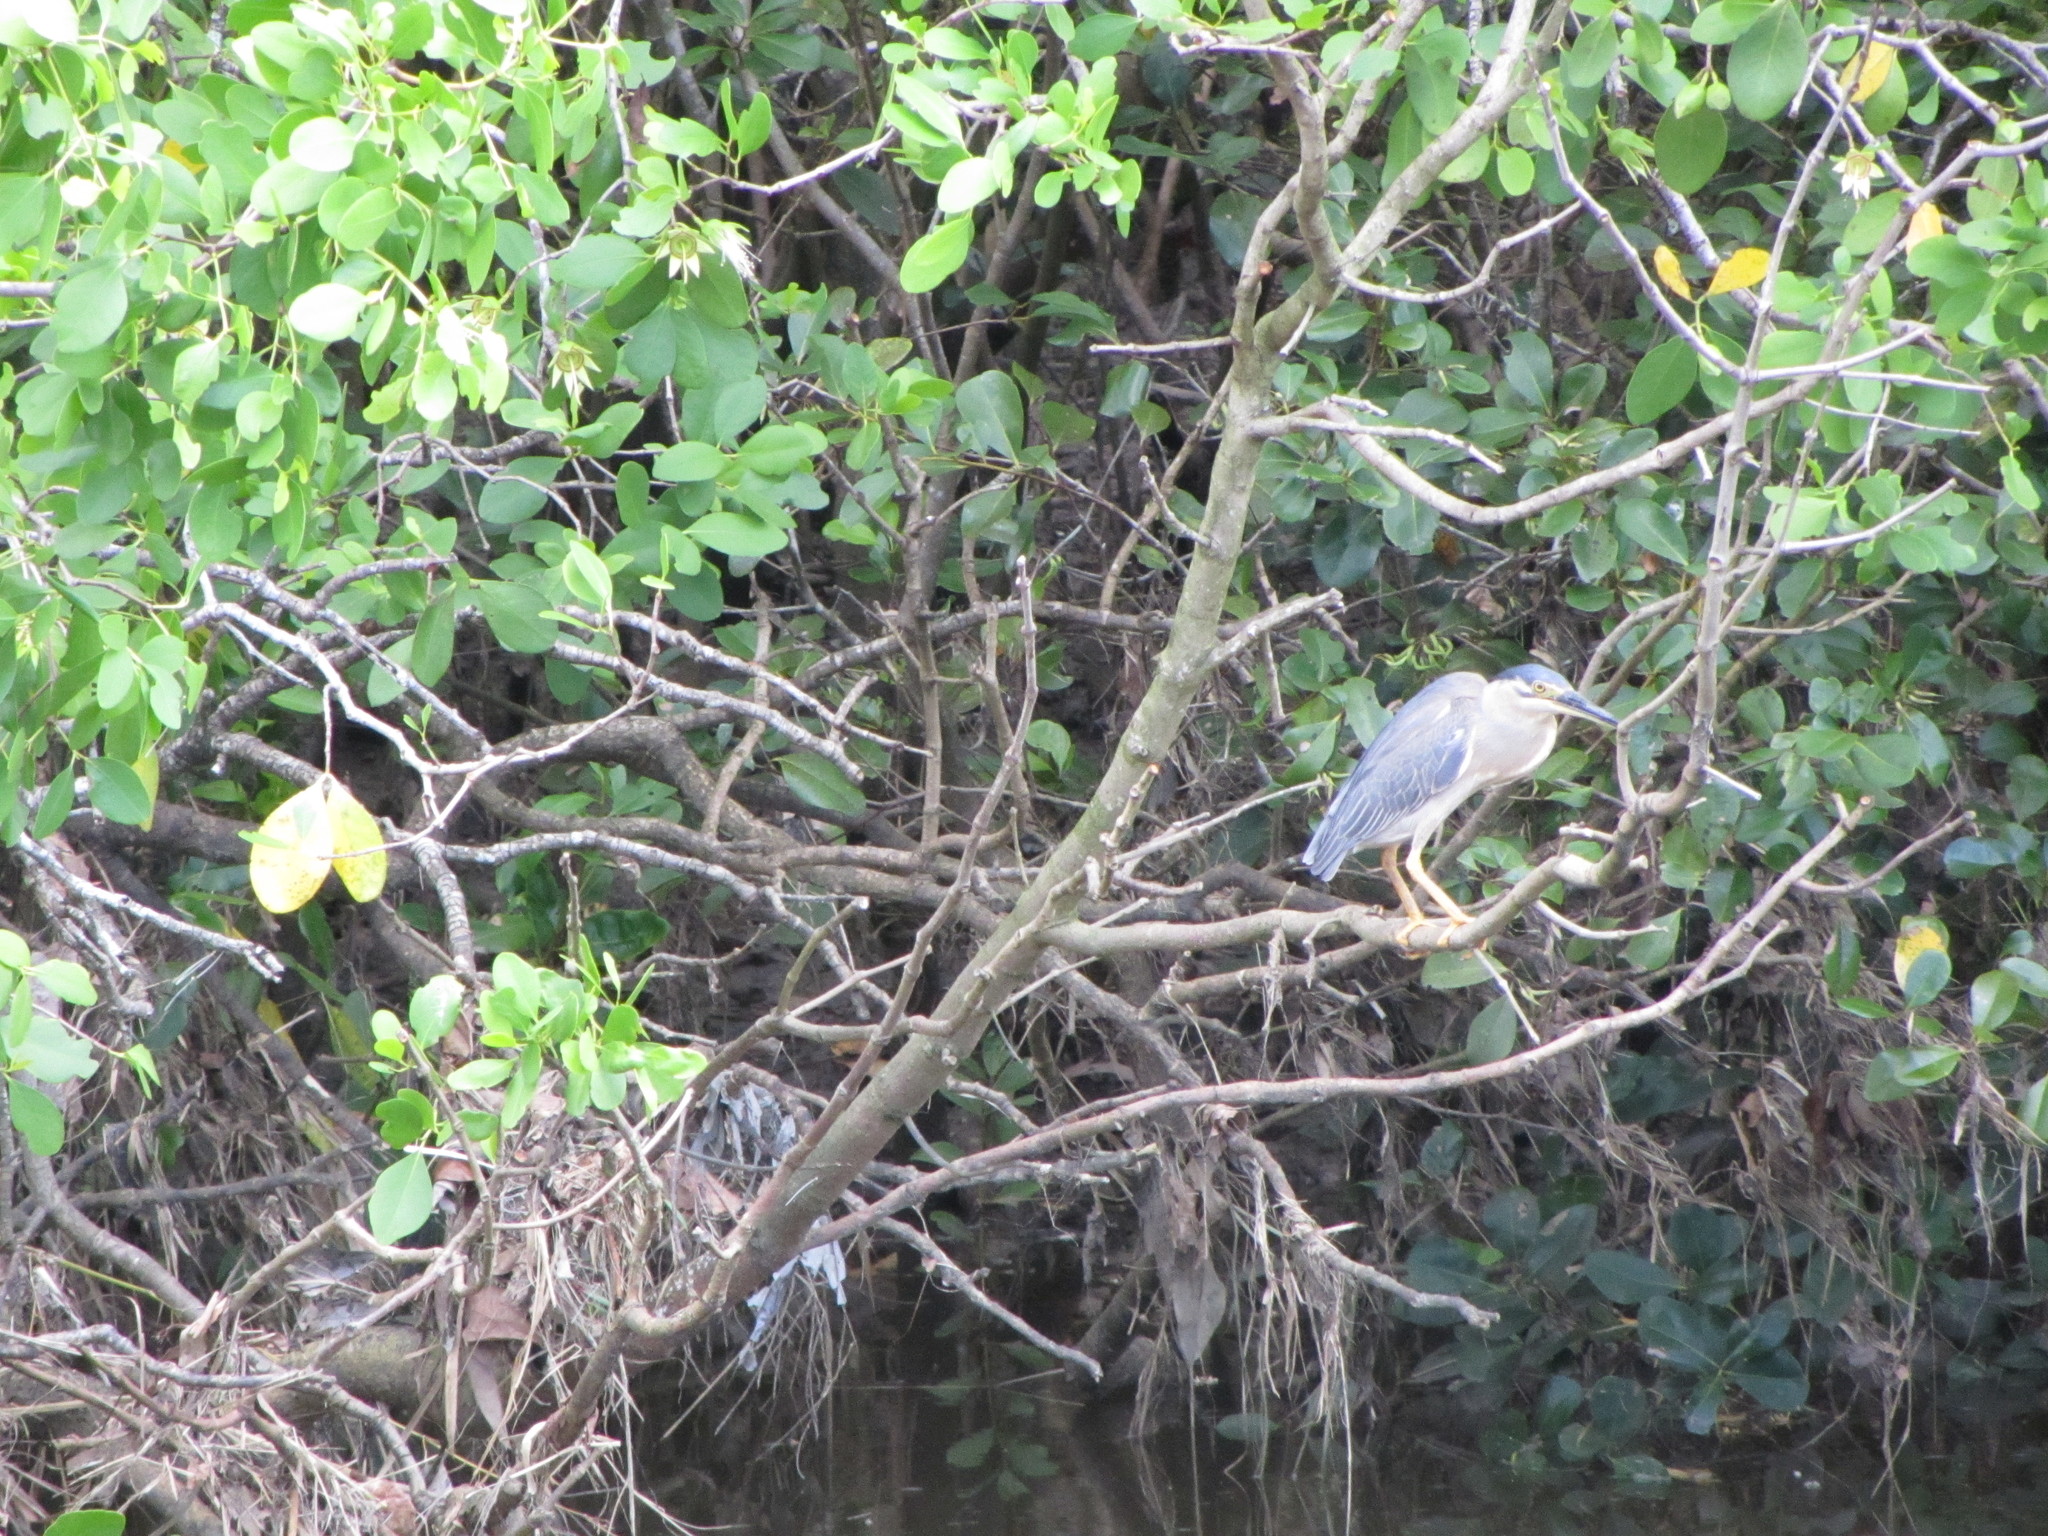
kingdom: Animalia
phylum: Chordata
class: Aves
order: Pelecaniformes
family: Ardeidae
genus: Butorides
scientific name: Butorides striata
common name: Striated heron
